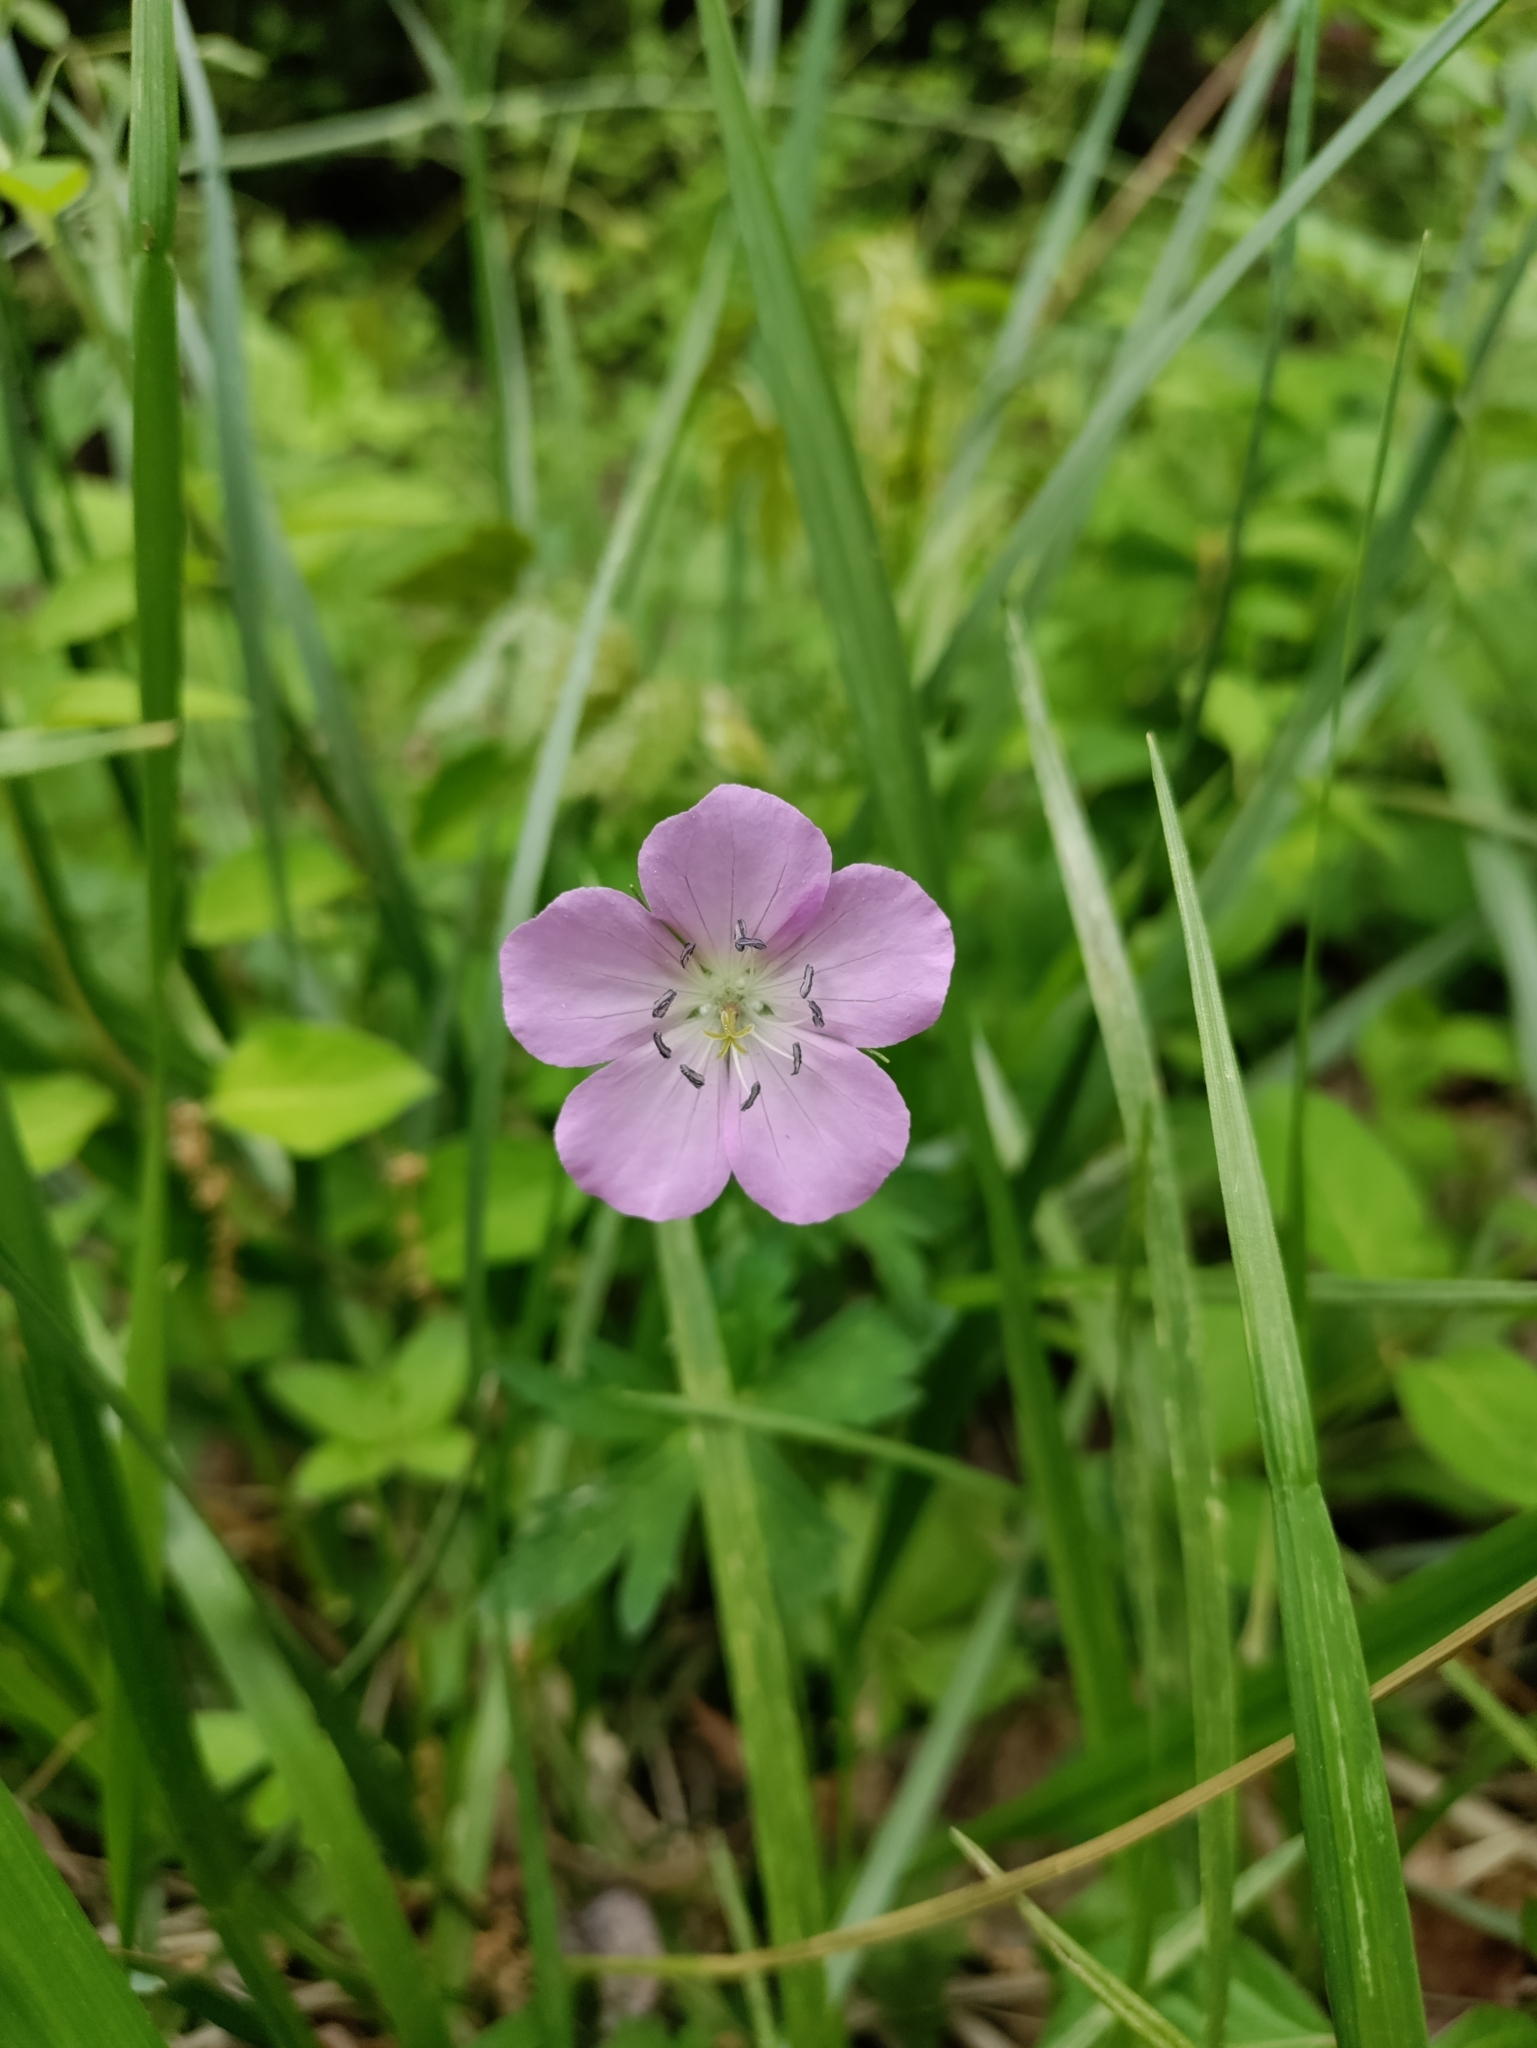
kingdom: Plantae
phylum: Tracheophyta
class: Magnoliopsida
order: Geraniales
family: Geraniaceae
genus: Geranium
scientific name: Geranium maculatum
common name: Spotted geranium
